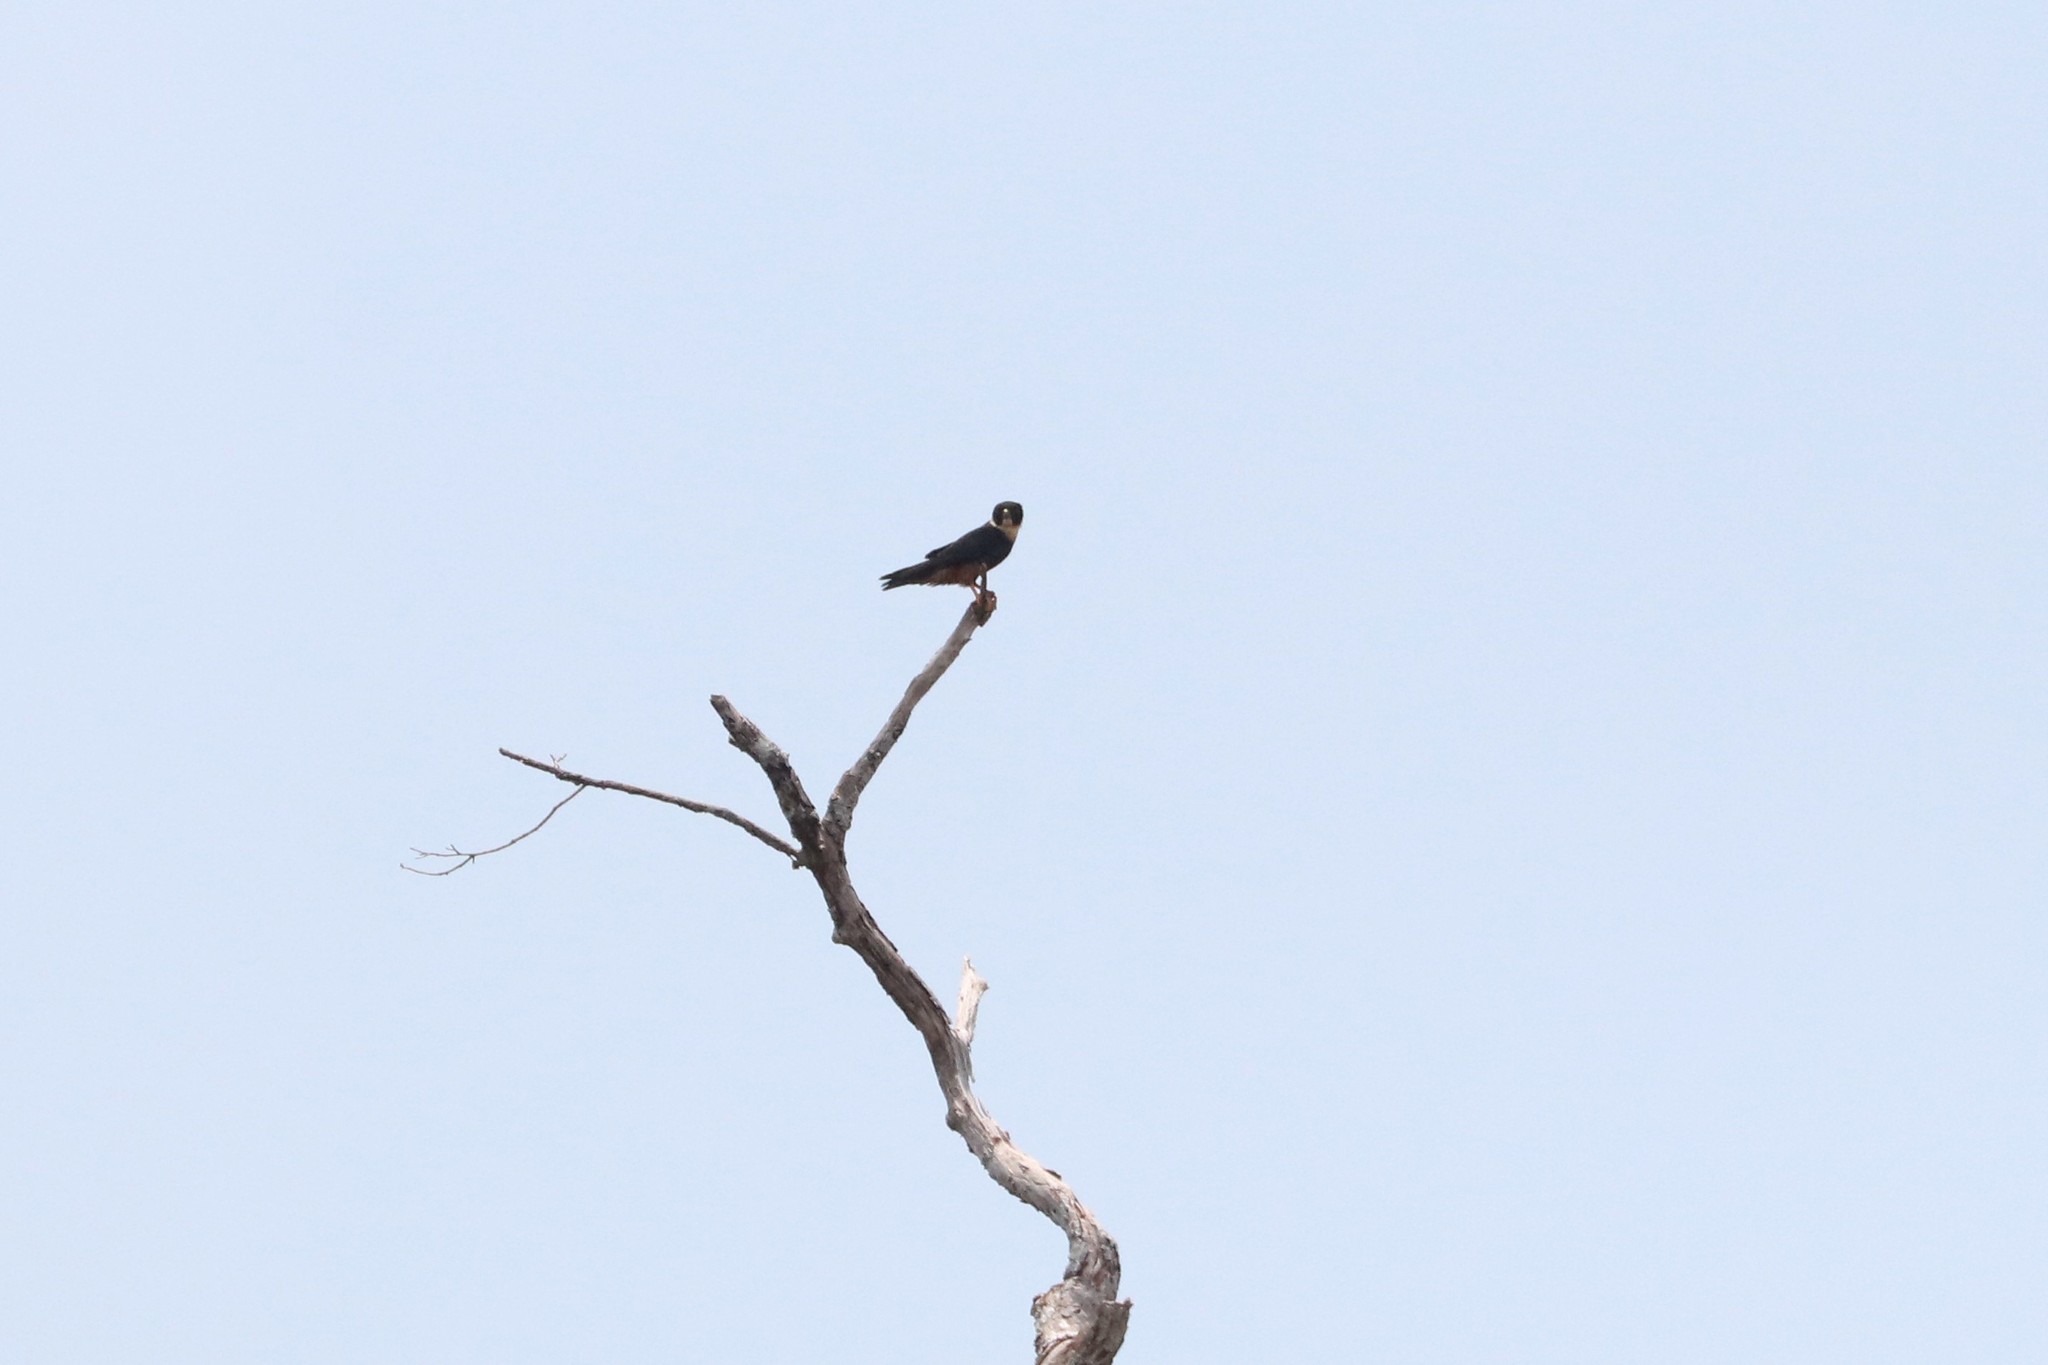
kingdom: Animalia
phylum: Chordata
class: Aves
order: Falconiformes
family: Falconidae
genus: Falco
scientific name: Falco rufigularis
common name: Bat falcon
